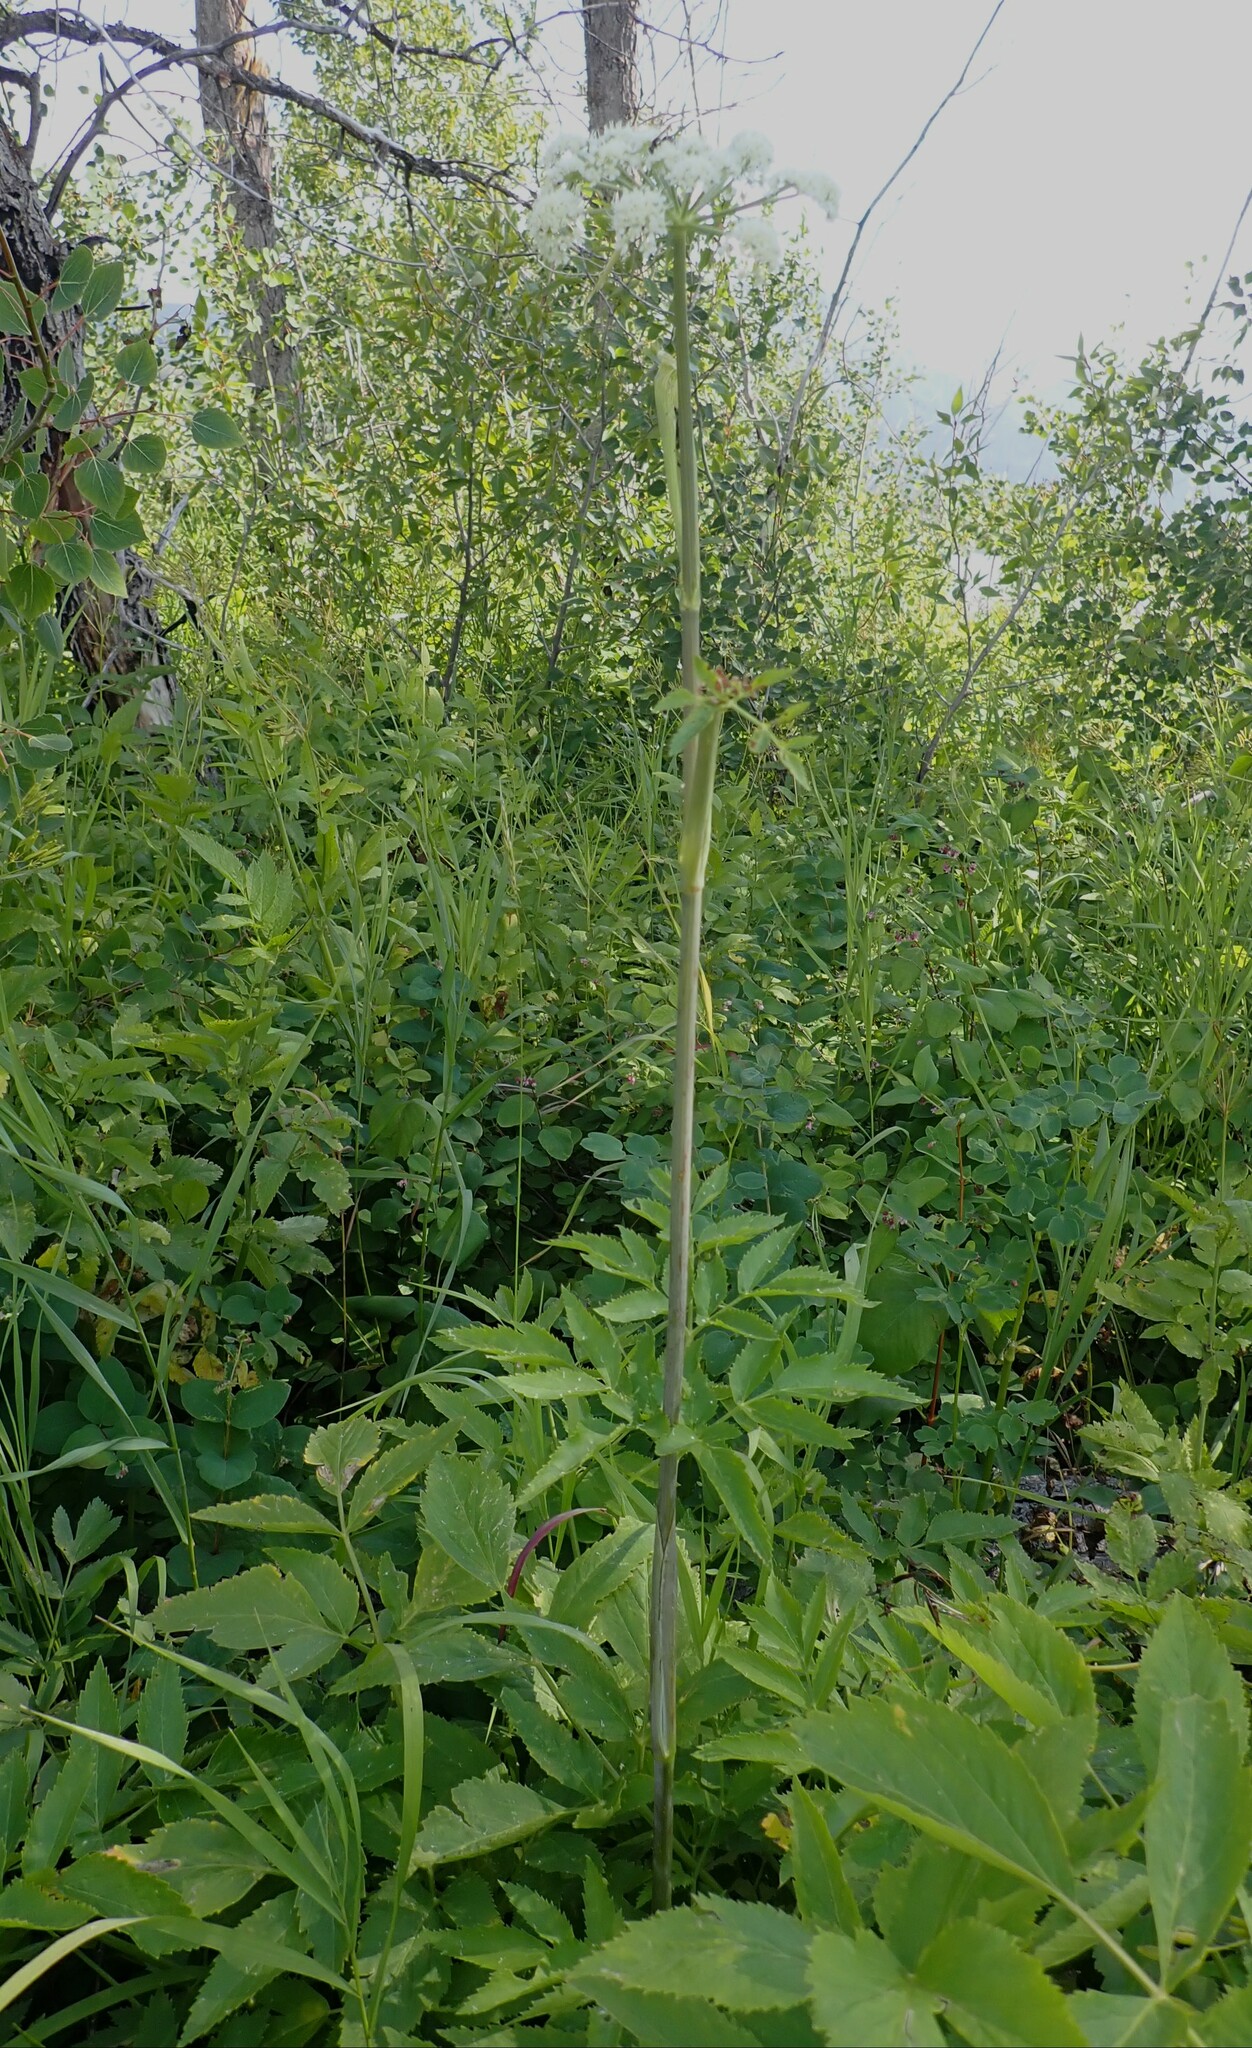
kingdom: Plantae
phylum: Tracheophyta
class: Magnoliopsida
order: Apiales
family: Apiaceae
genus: Angelica
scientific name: Angelica arguta
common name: Lyall's angelica
